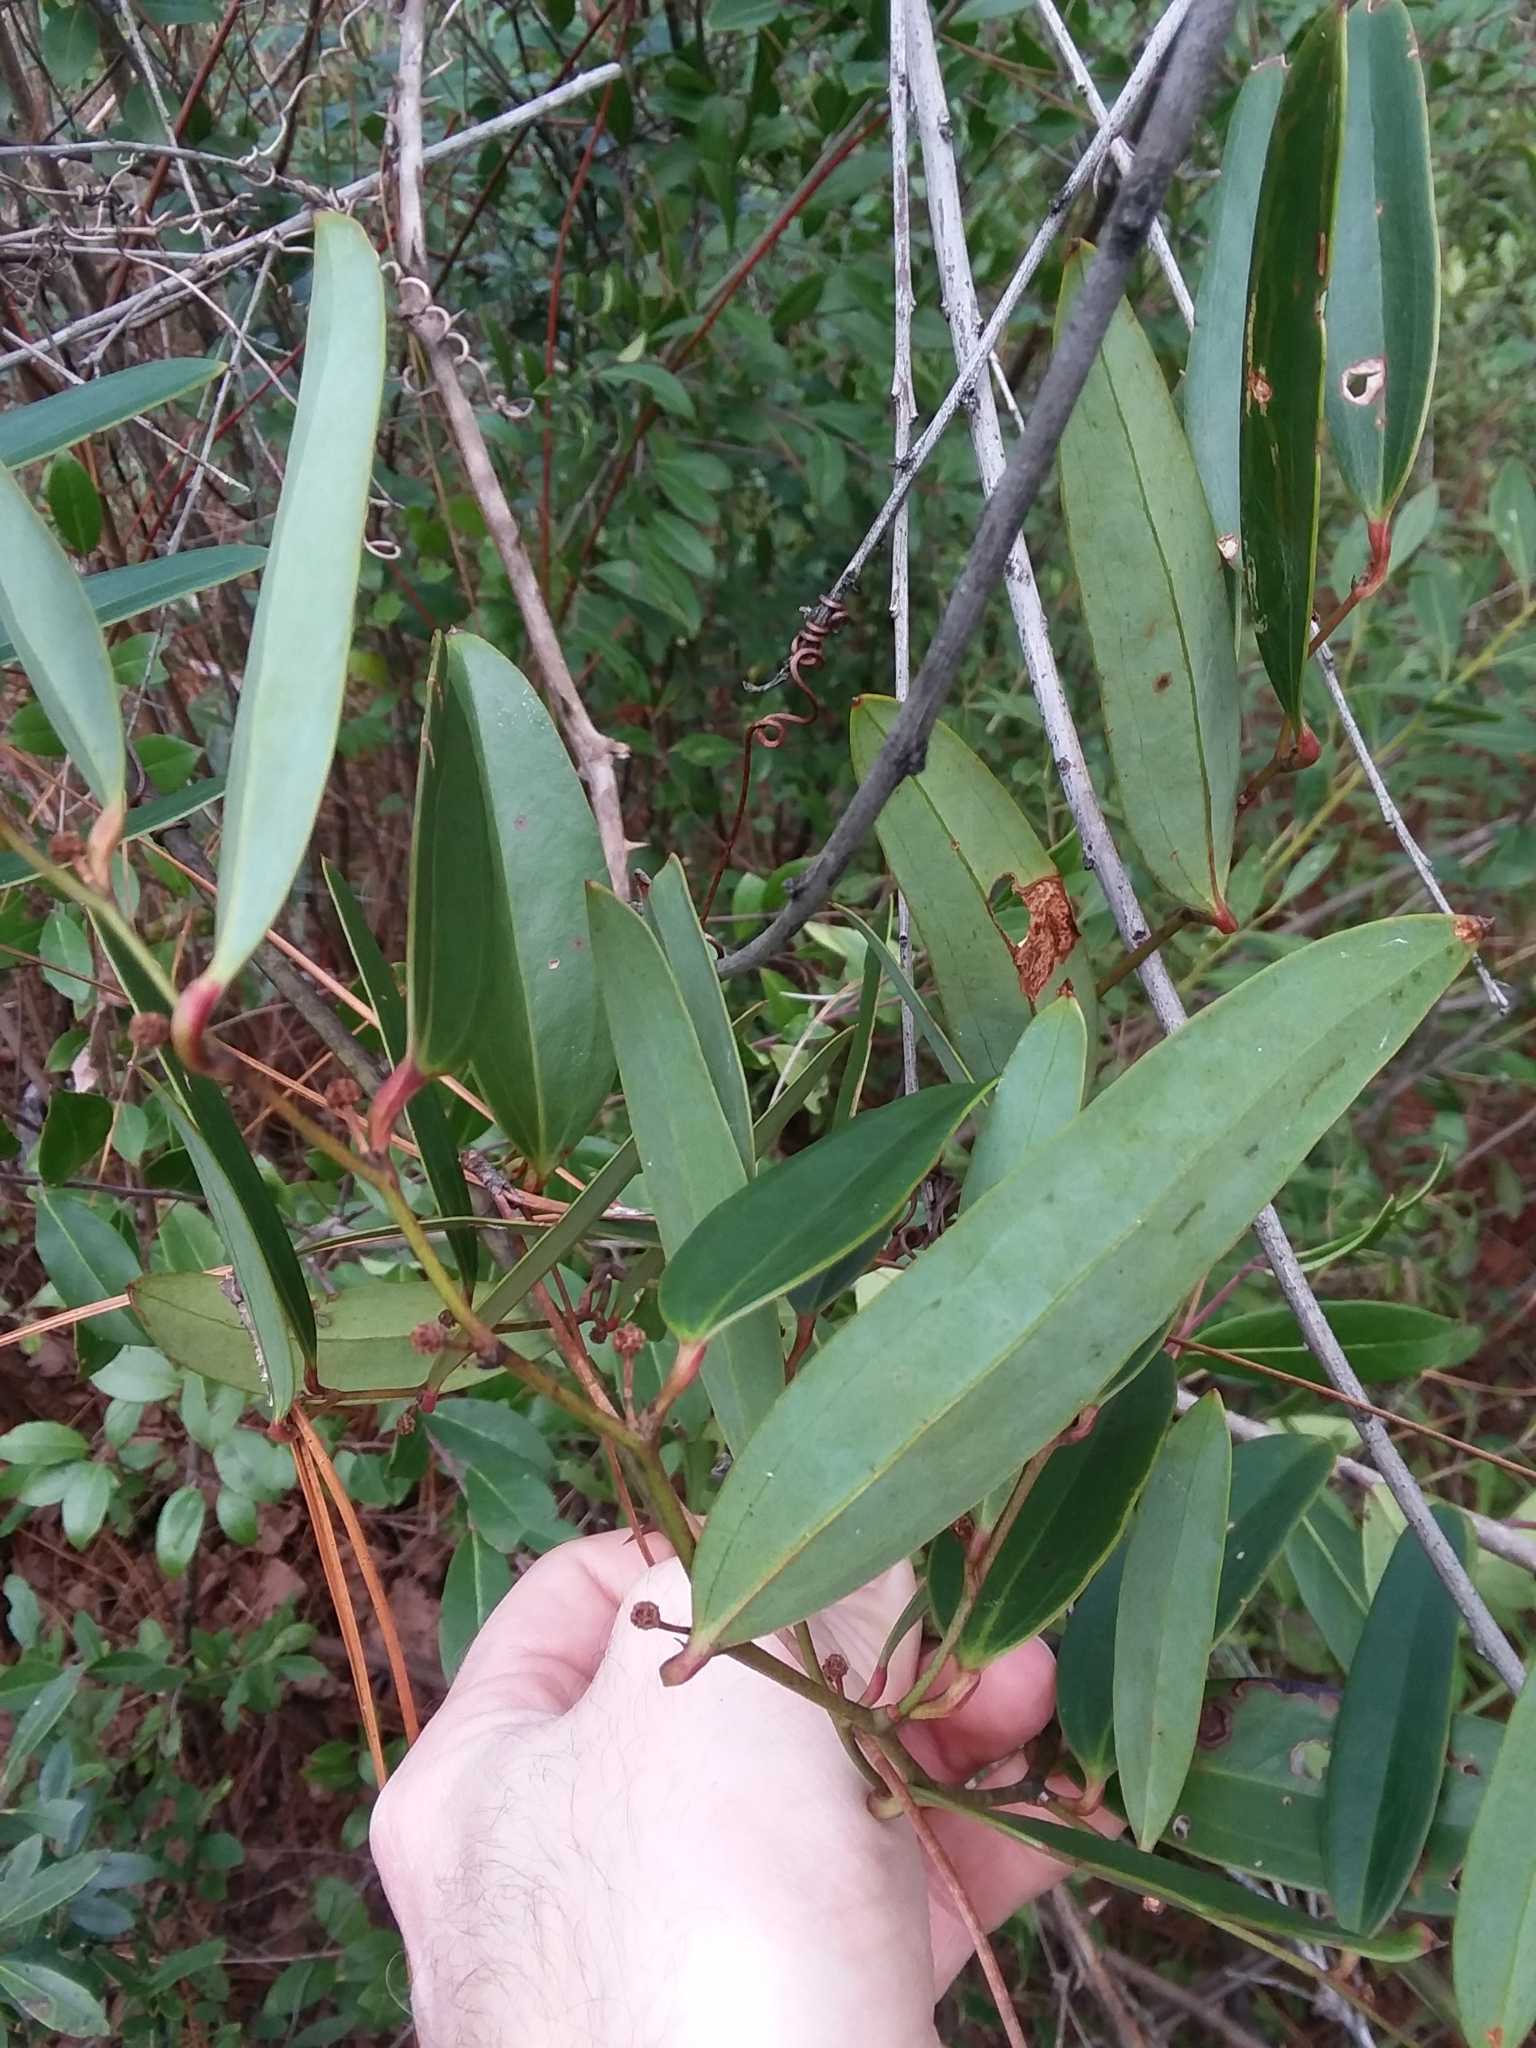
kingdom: Plantae
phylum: Tracheophyta
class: Liliopsida
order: Liliales
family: Smilacaceae
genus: Smilax
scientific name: Smilax laurifolia
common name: Bamboovine
